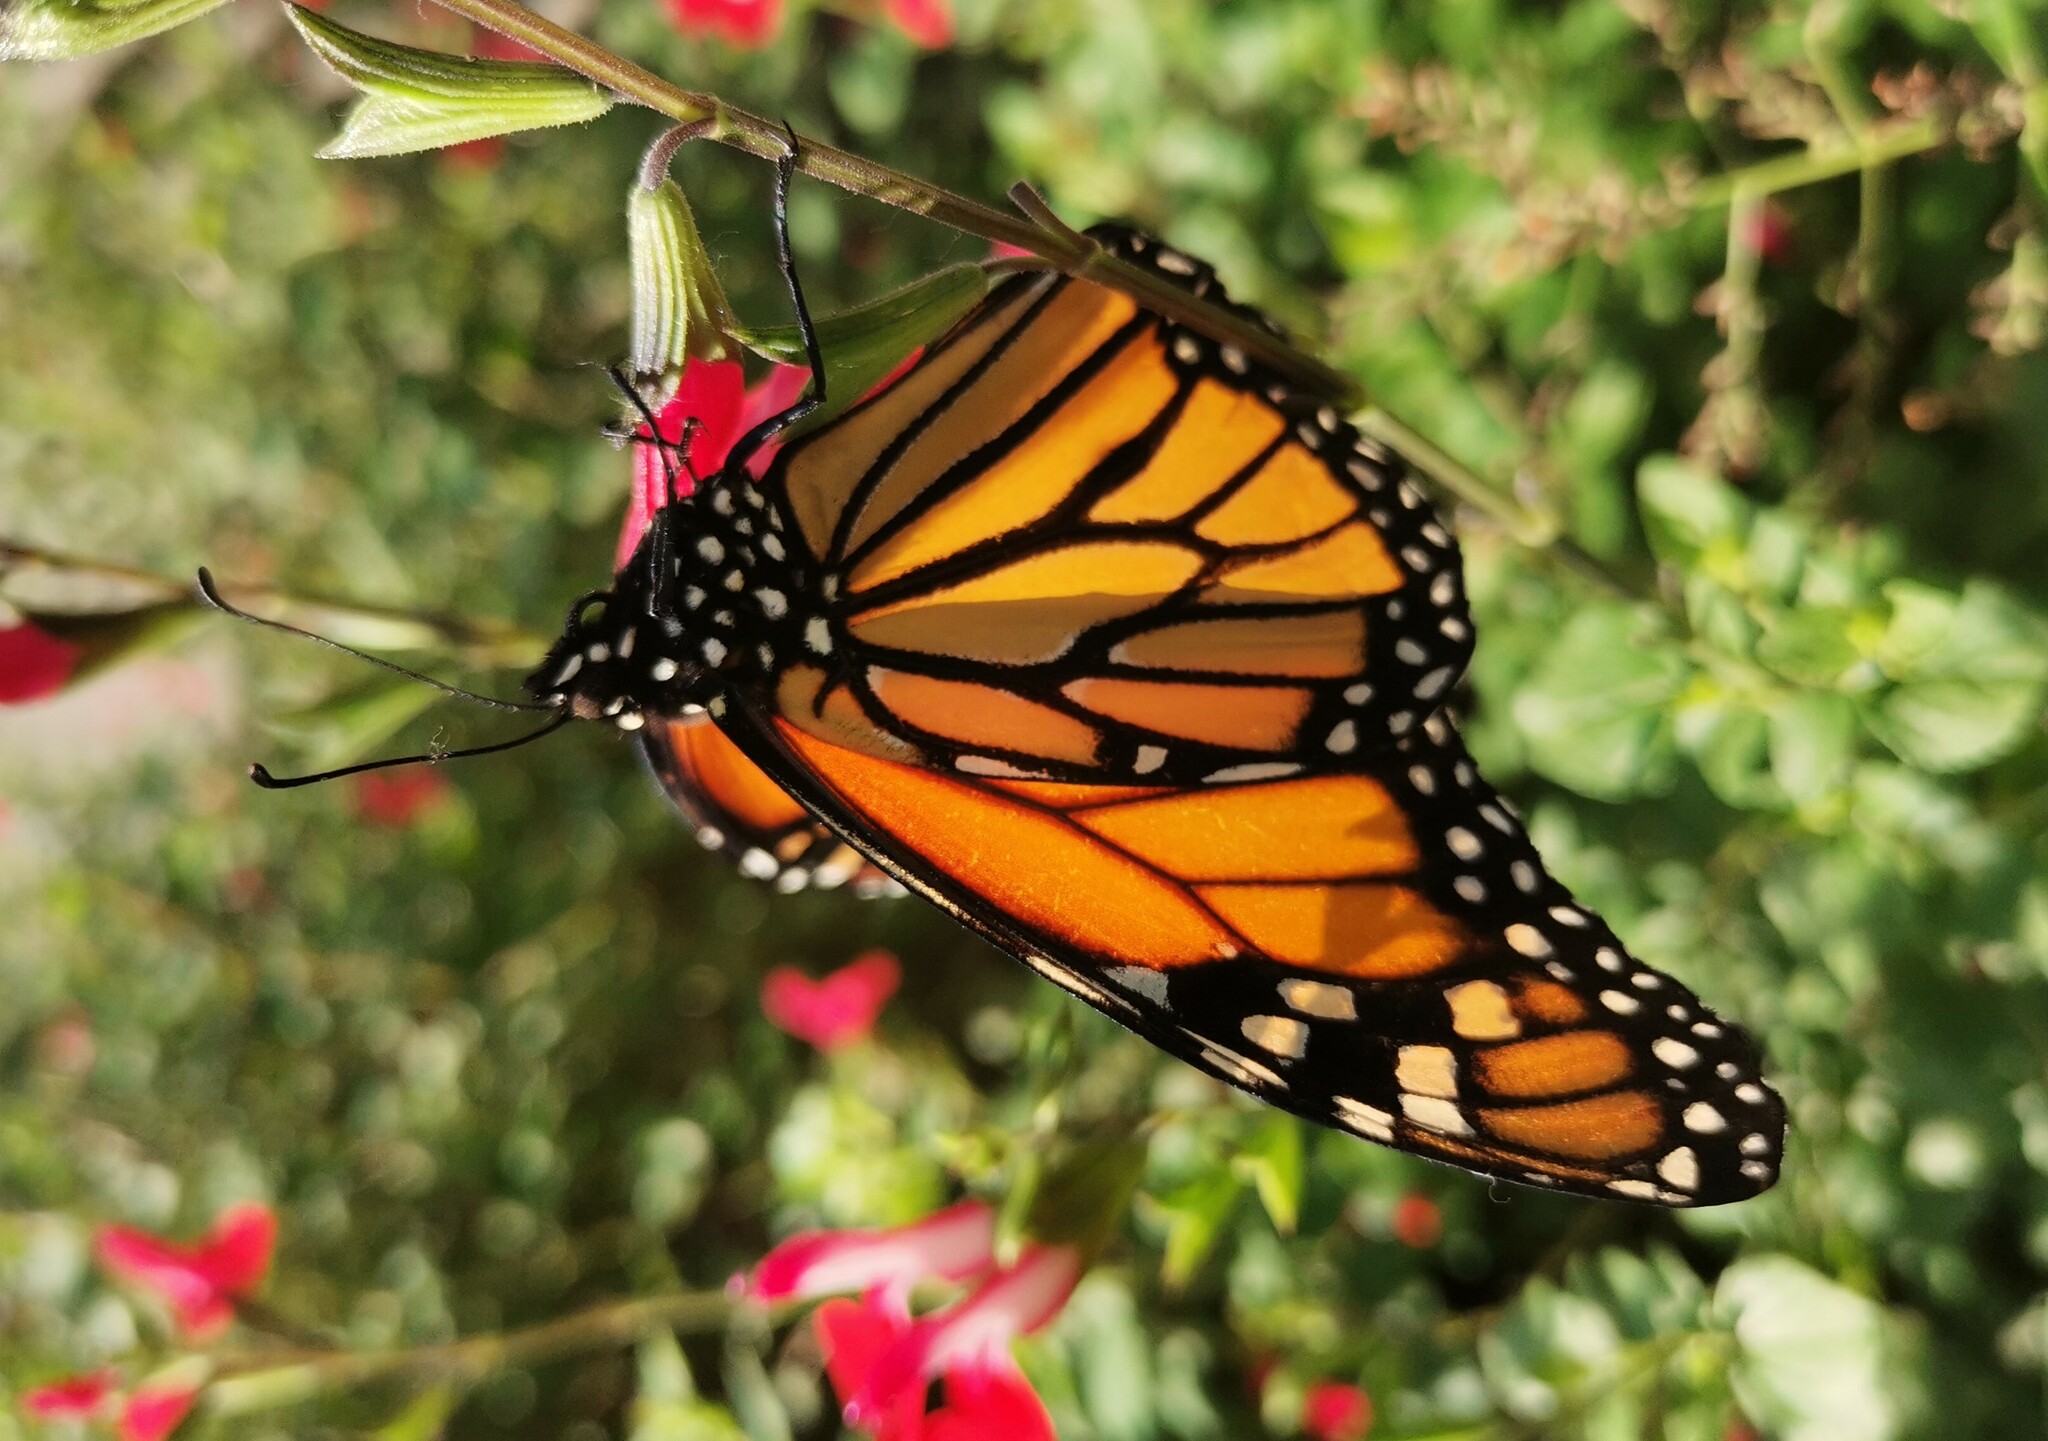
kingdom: Animalia
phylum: Arthropoda
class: Insecta
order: Lepidoptera
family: Nymphalidae
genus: Danaus
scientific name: Danaus plexippus
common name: Monarch
